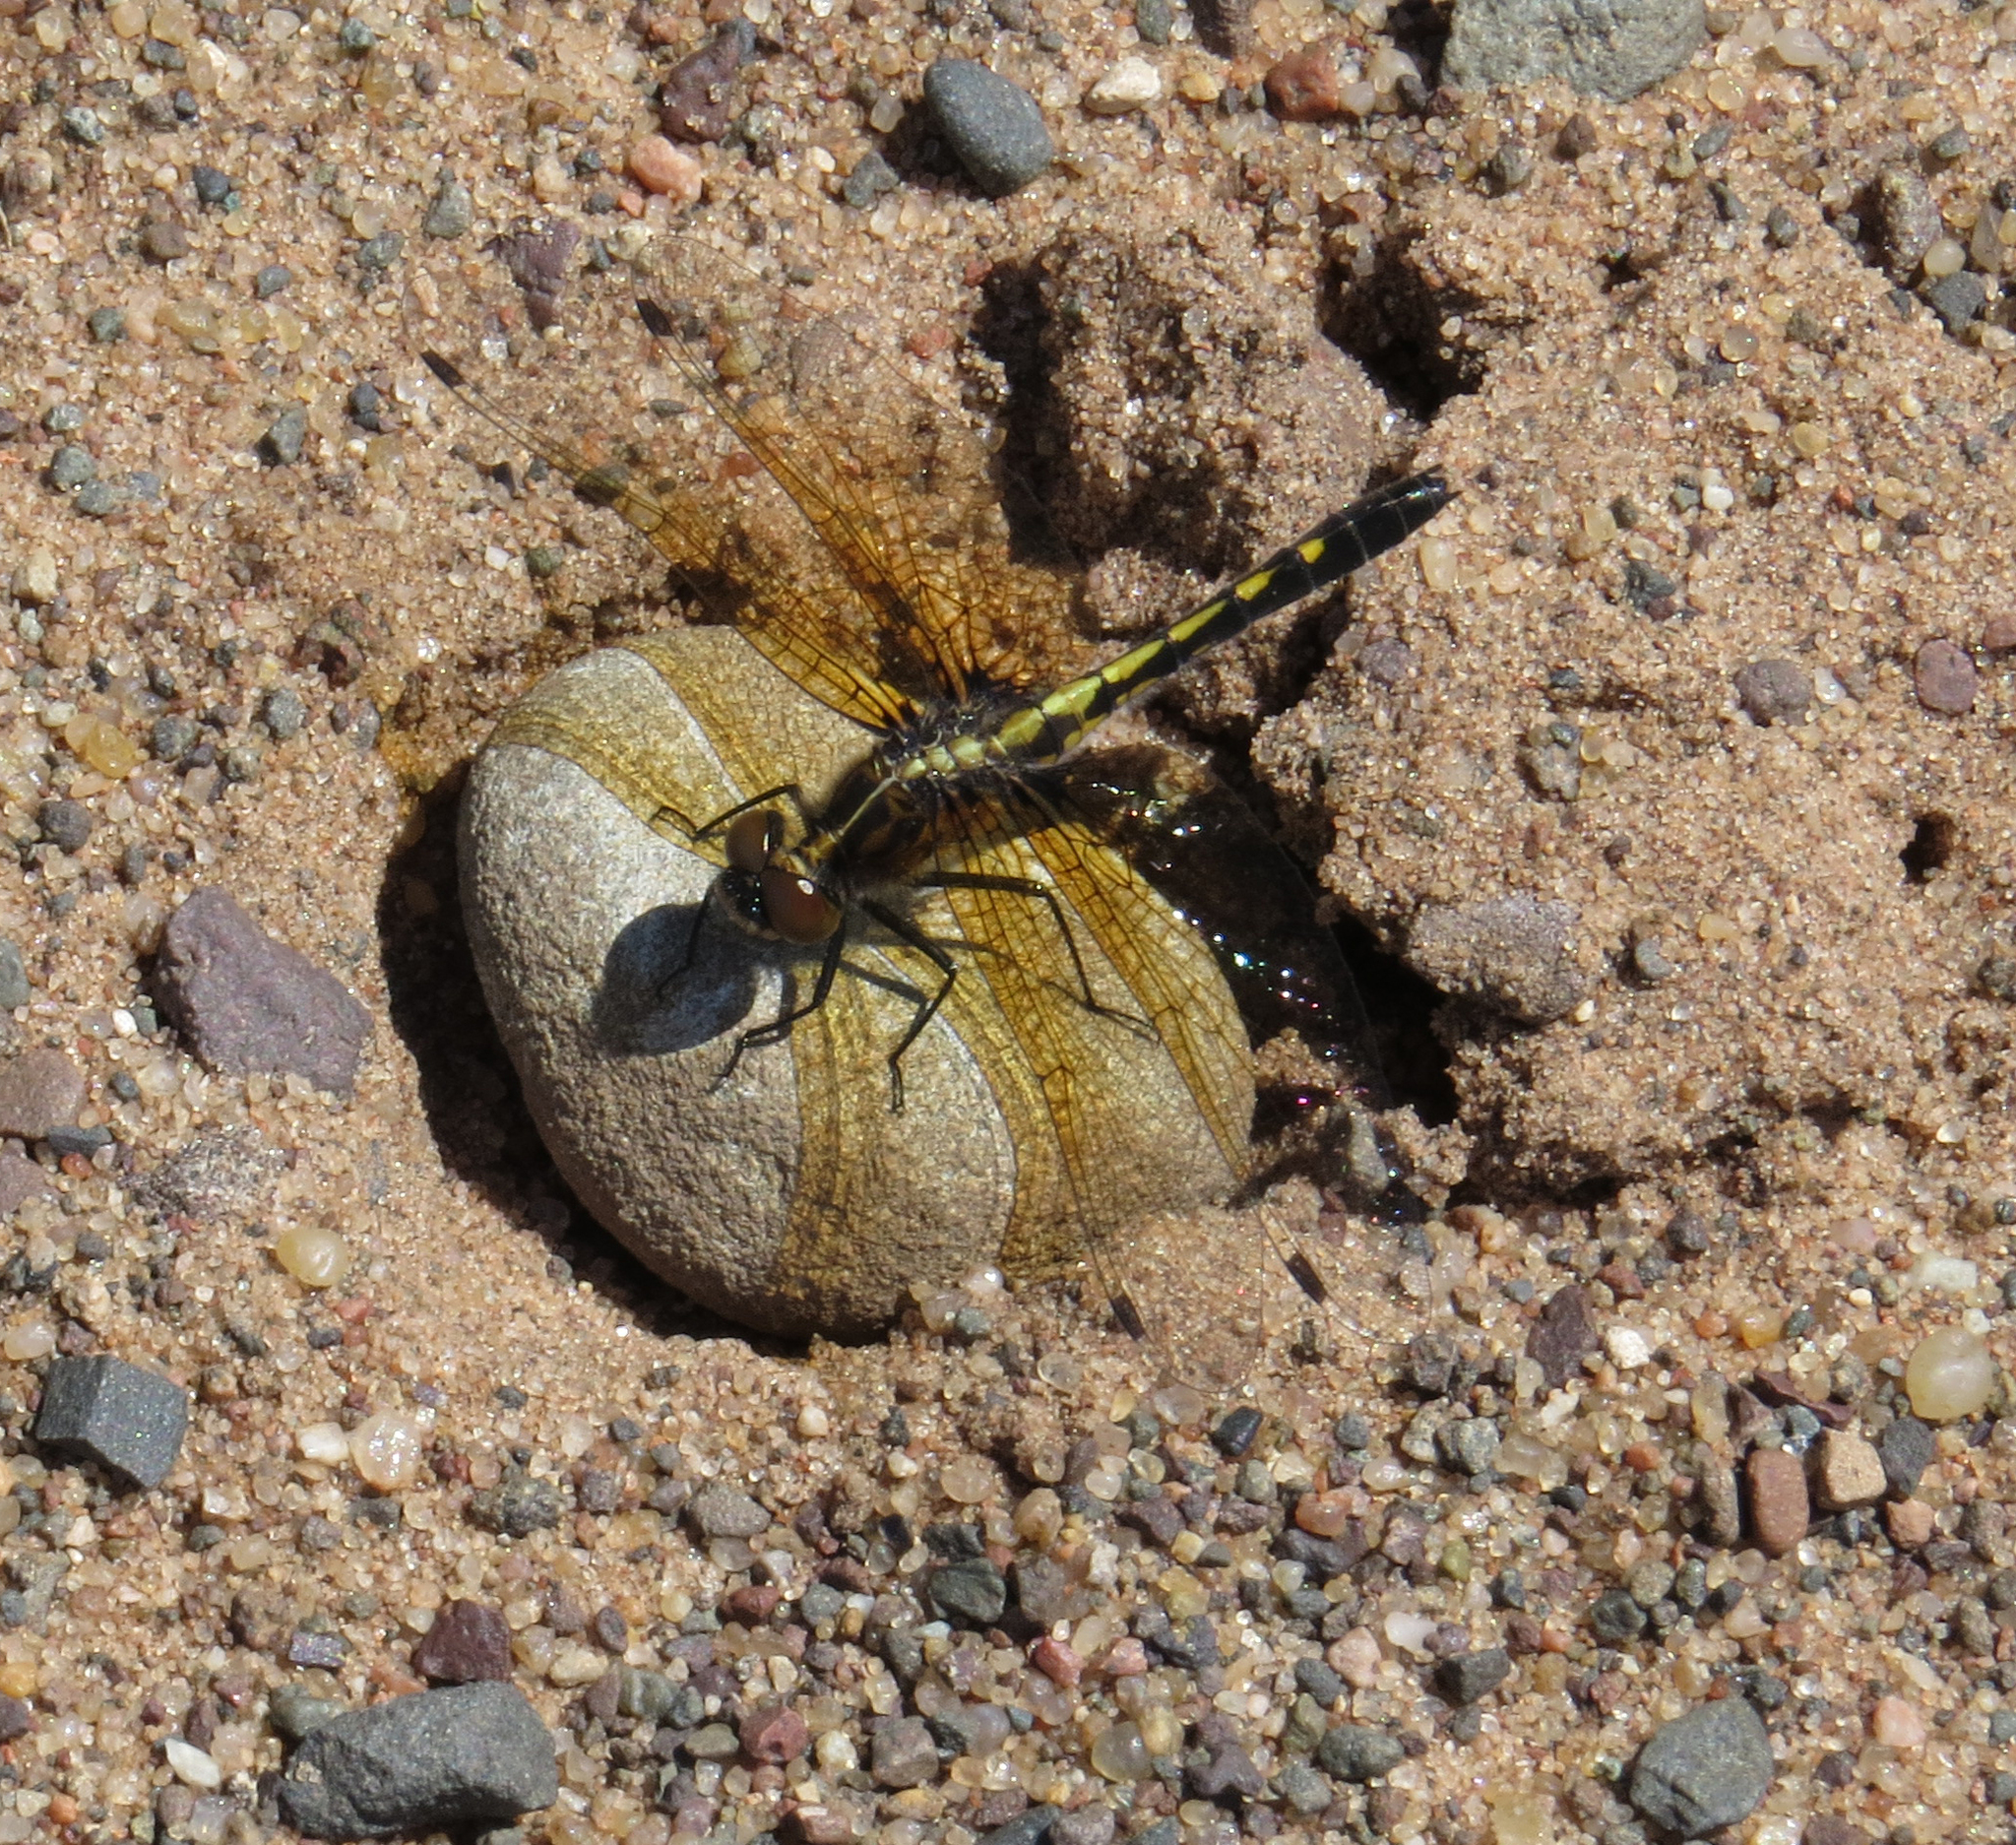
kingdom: Animalia
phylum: Arthropoda
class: Insecta
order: Odonata
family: Libellulidae
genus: Leucorrhinia
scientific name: Leucorrhinia intacta
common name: Dot-tailed whiteface
